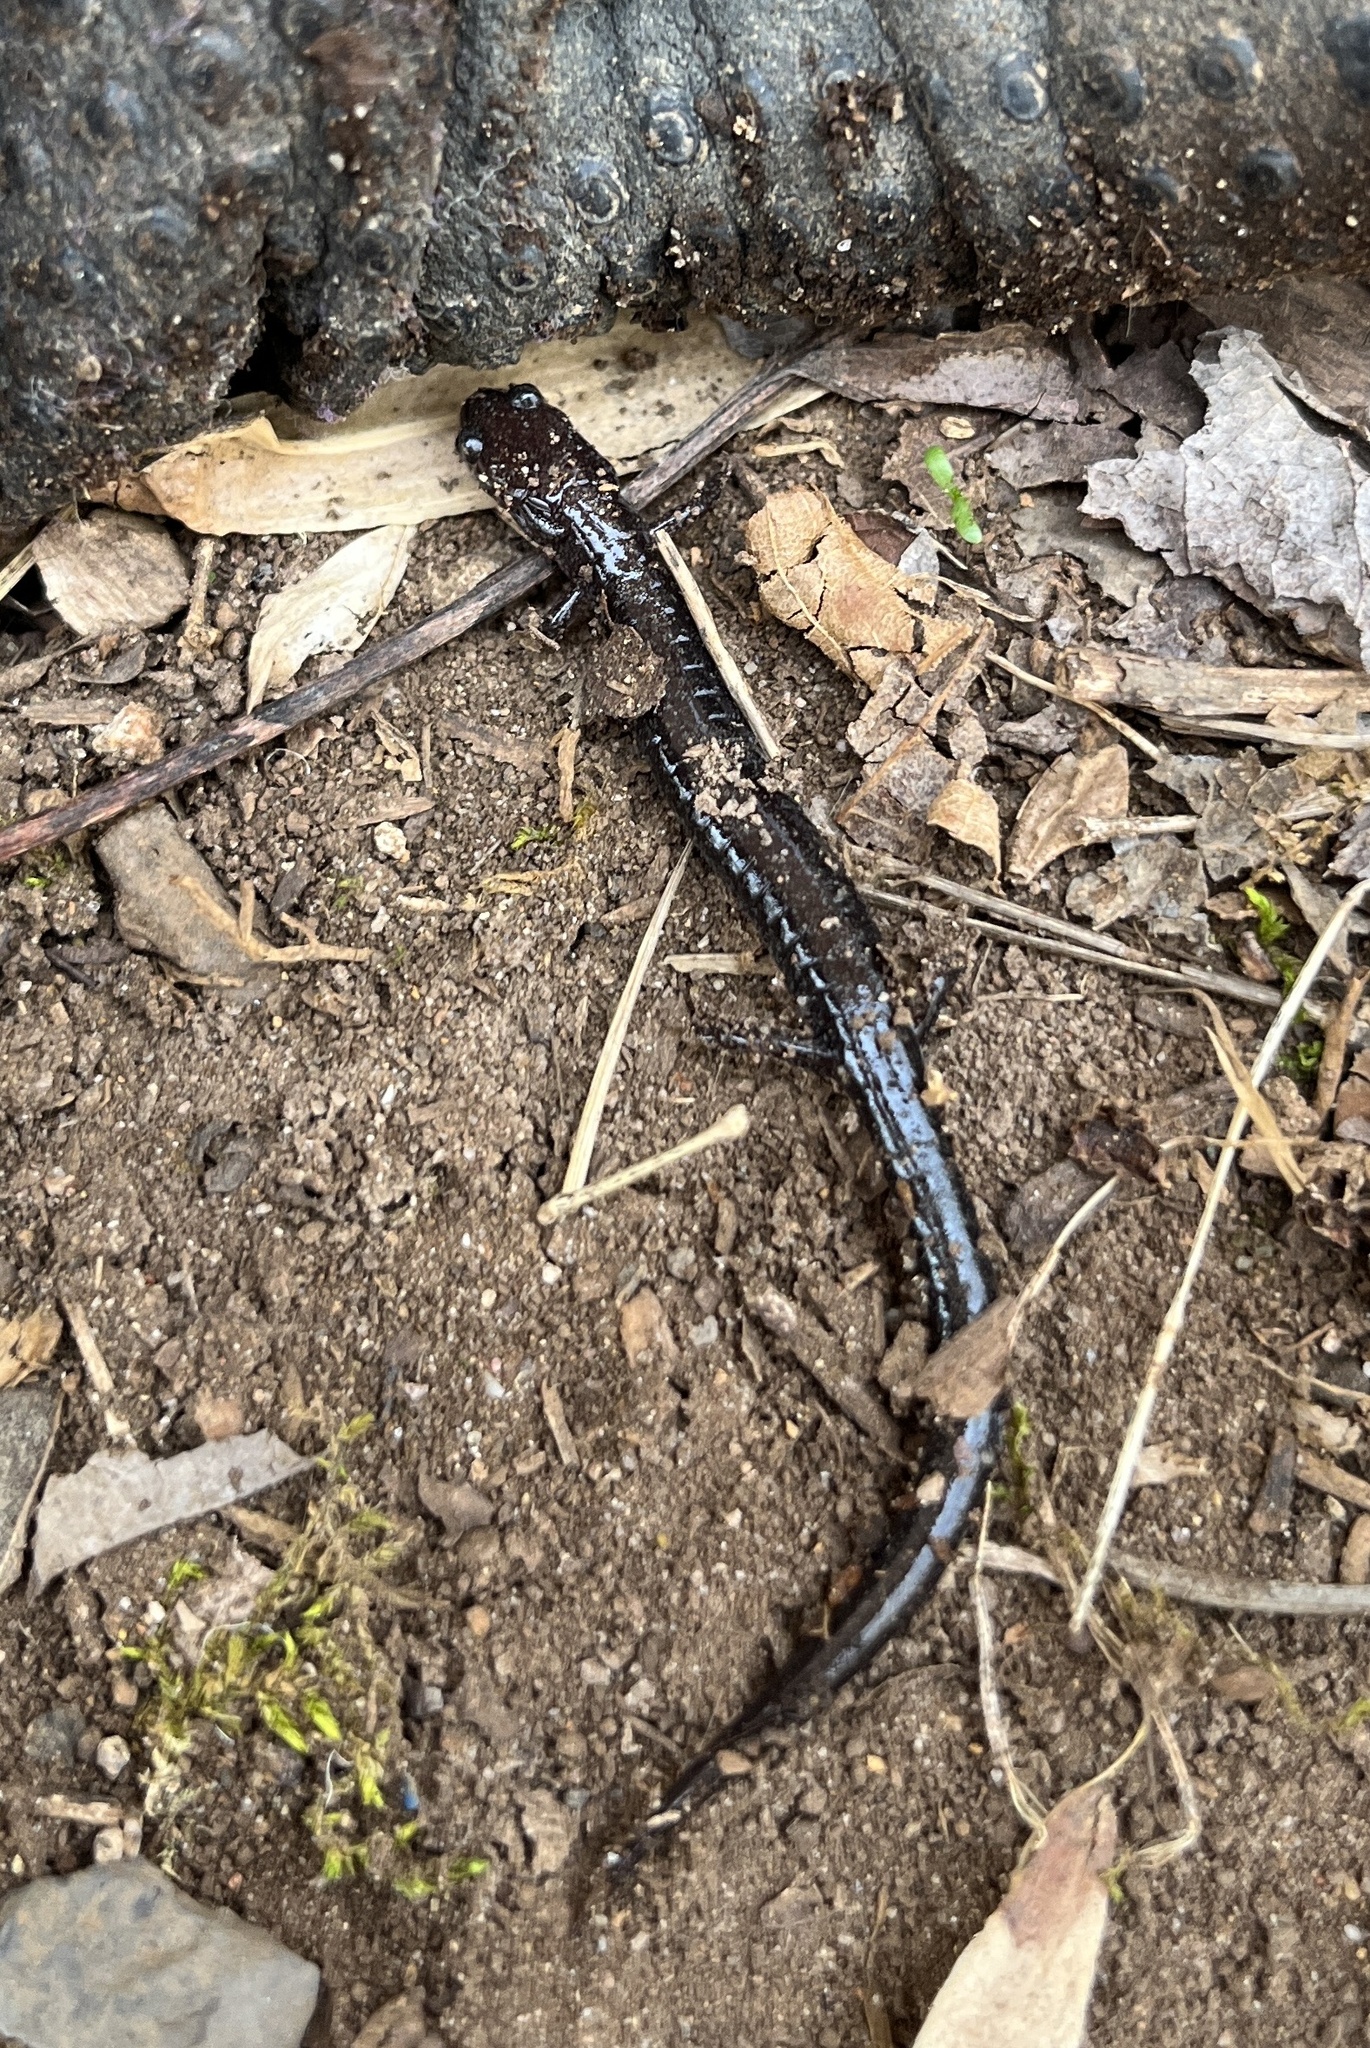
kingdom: Animalia
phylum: Chordata
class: Amphibia
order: Caudata
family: Plethodontidae
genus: Plethodon
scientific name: Plethodon cinereus
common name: Redback salamander
